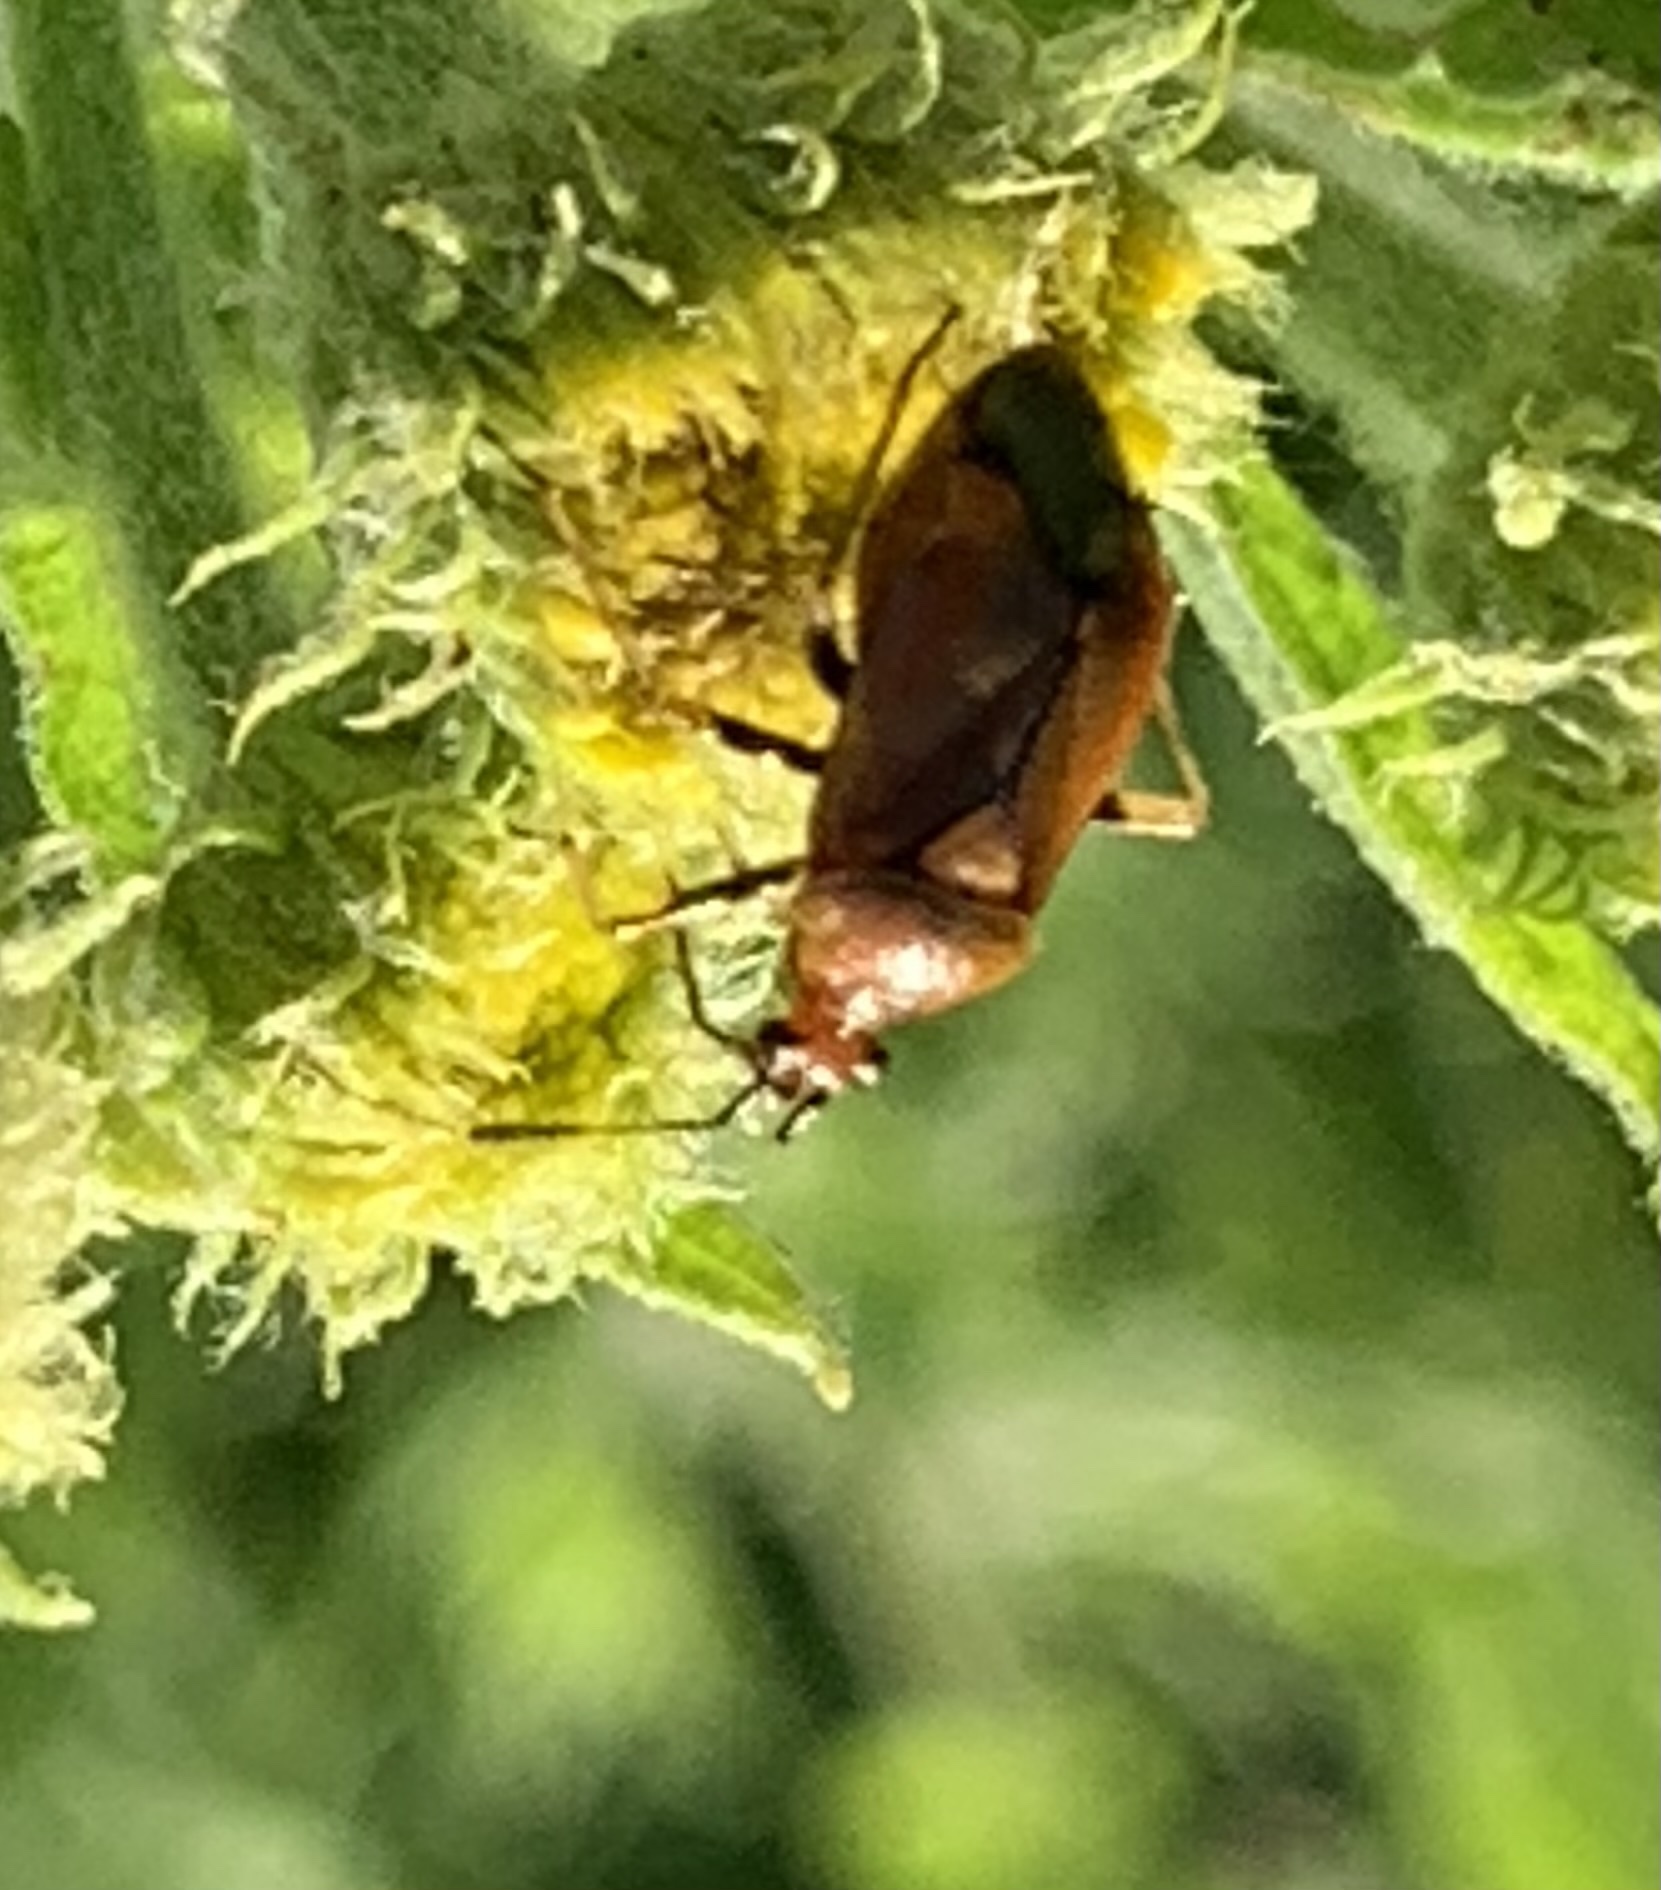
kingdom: Animalia
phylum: Arthropoda
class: Insecta
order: Hemiptera
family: Miridae
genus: Deraeocoris
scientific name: Deraeocoris ruber
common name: Plant bug
